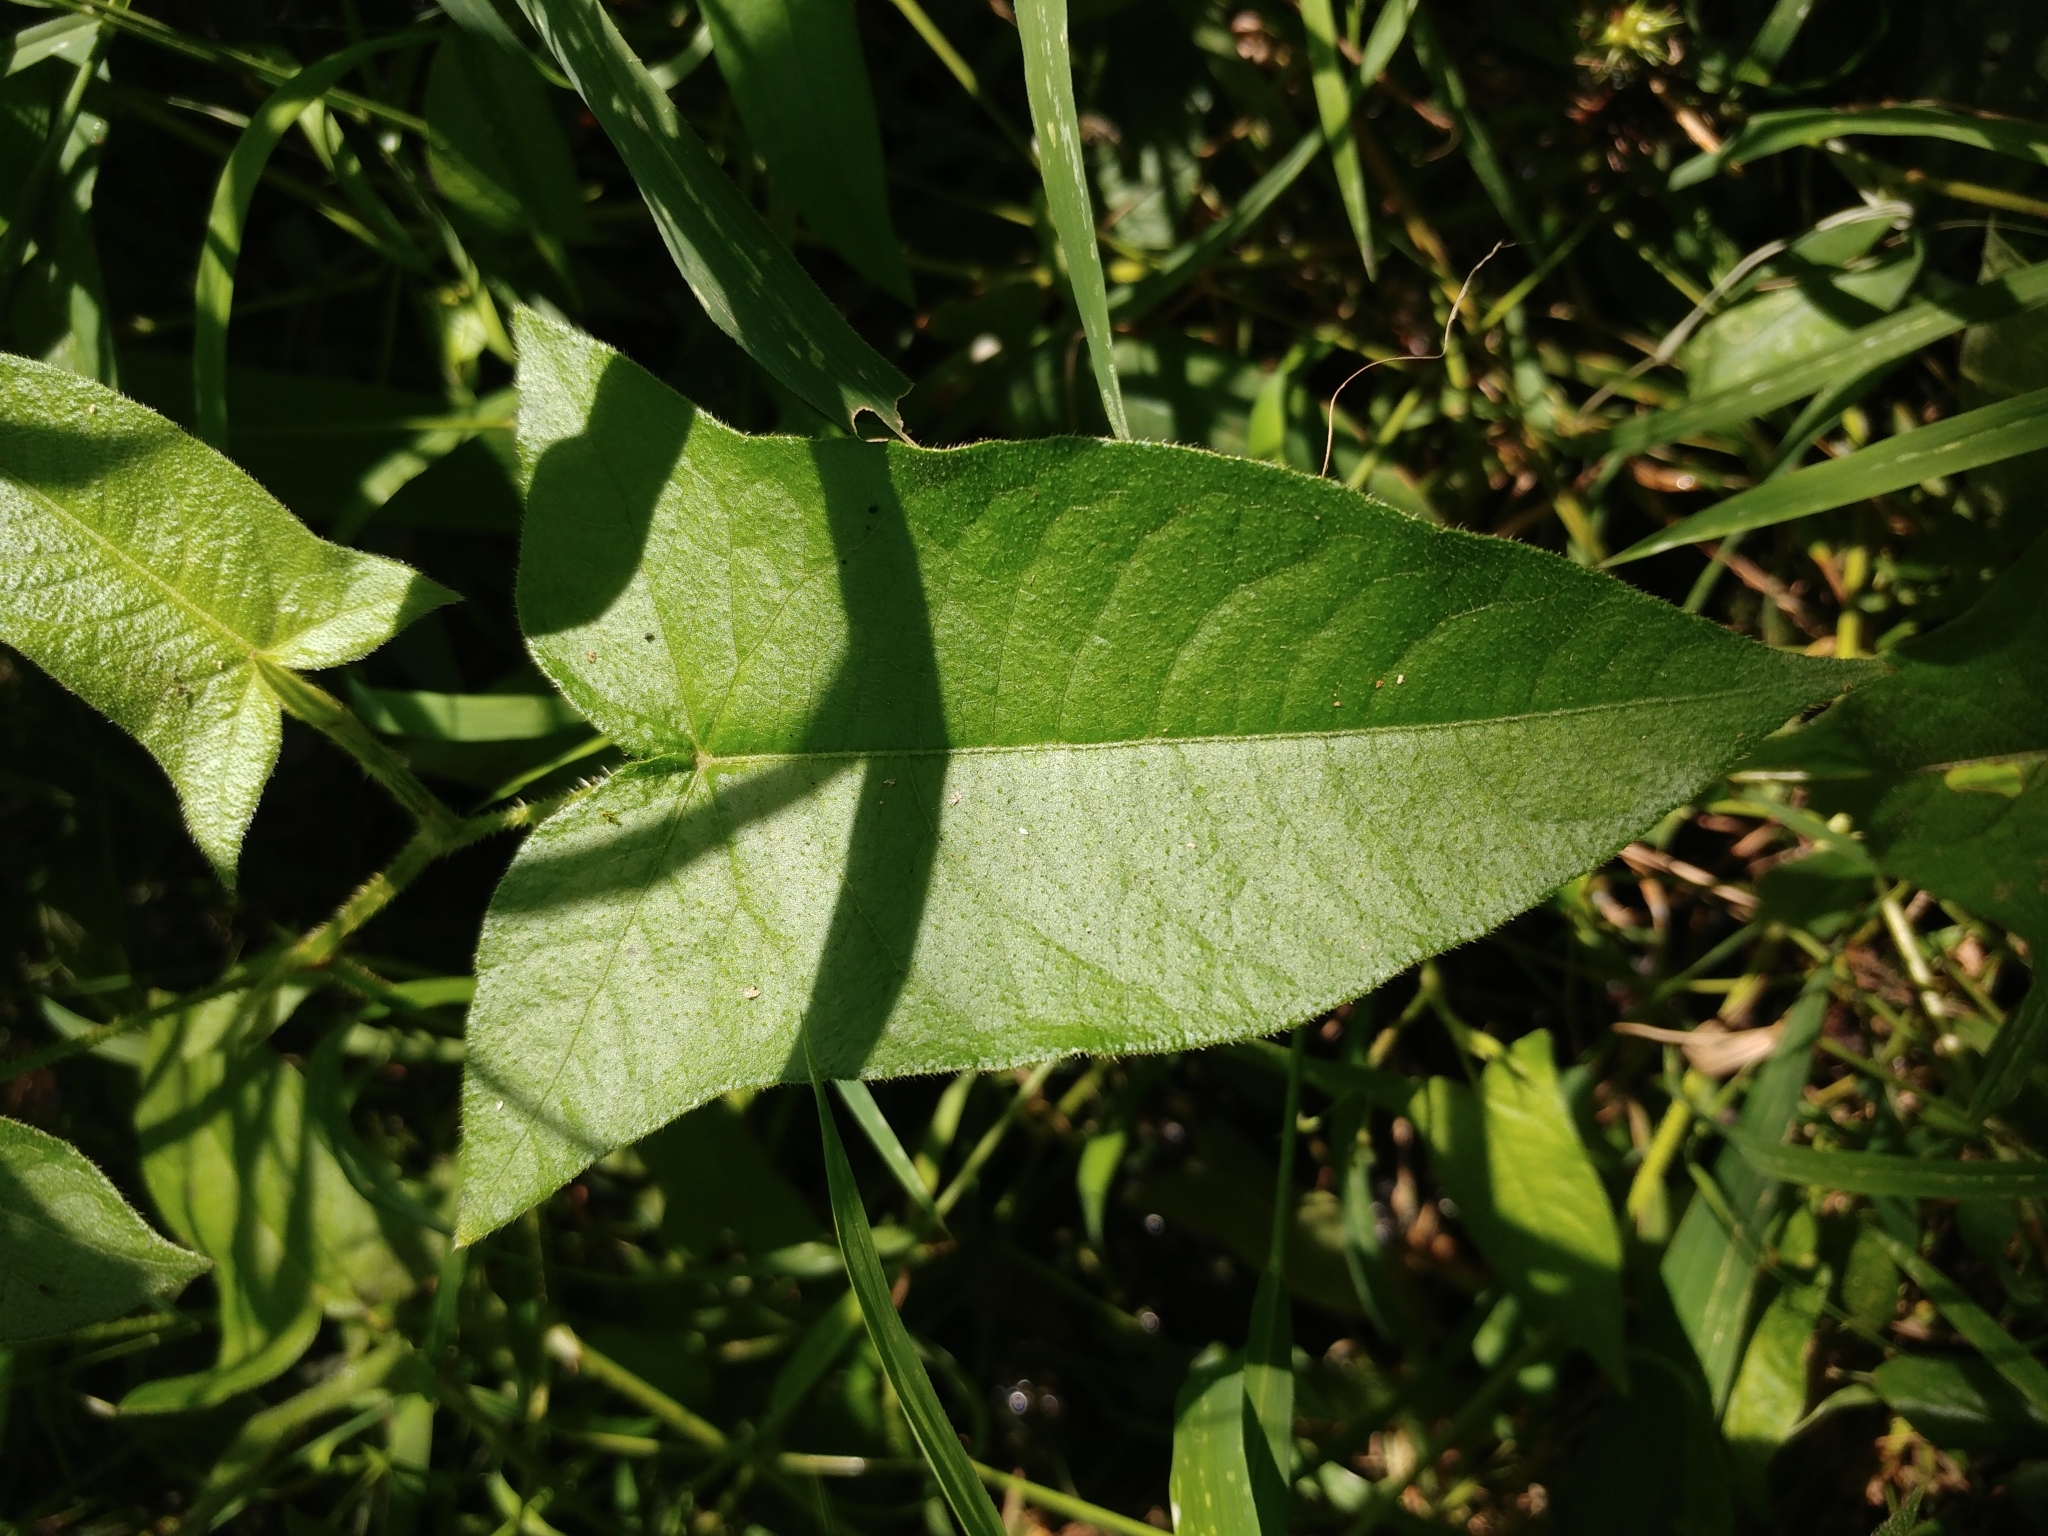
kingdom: Plantae
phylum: Tracheophyta
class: Magnoliopsida
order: Caryophyllales
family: Polygonaceae
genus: Persicaria
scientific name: Persicaria arifolia
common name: Halberd-leaved tear-thumb
